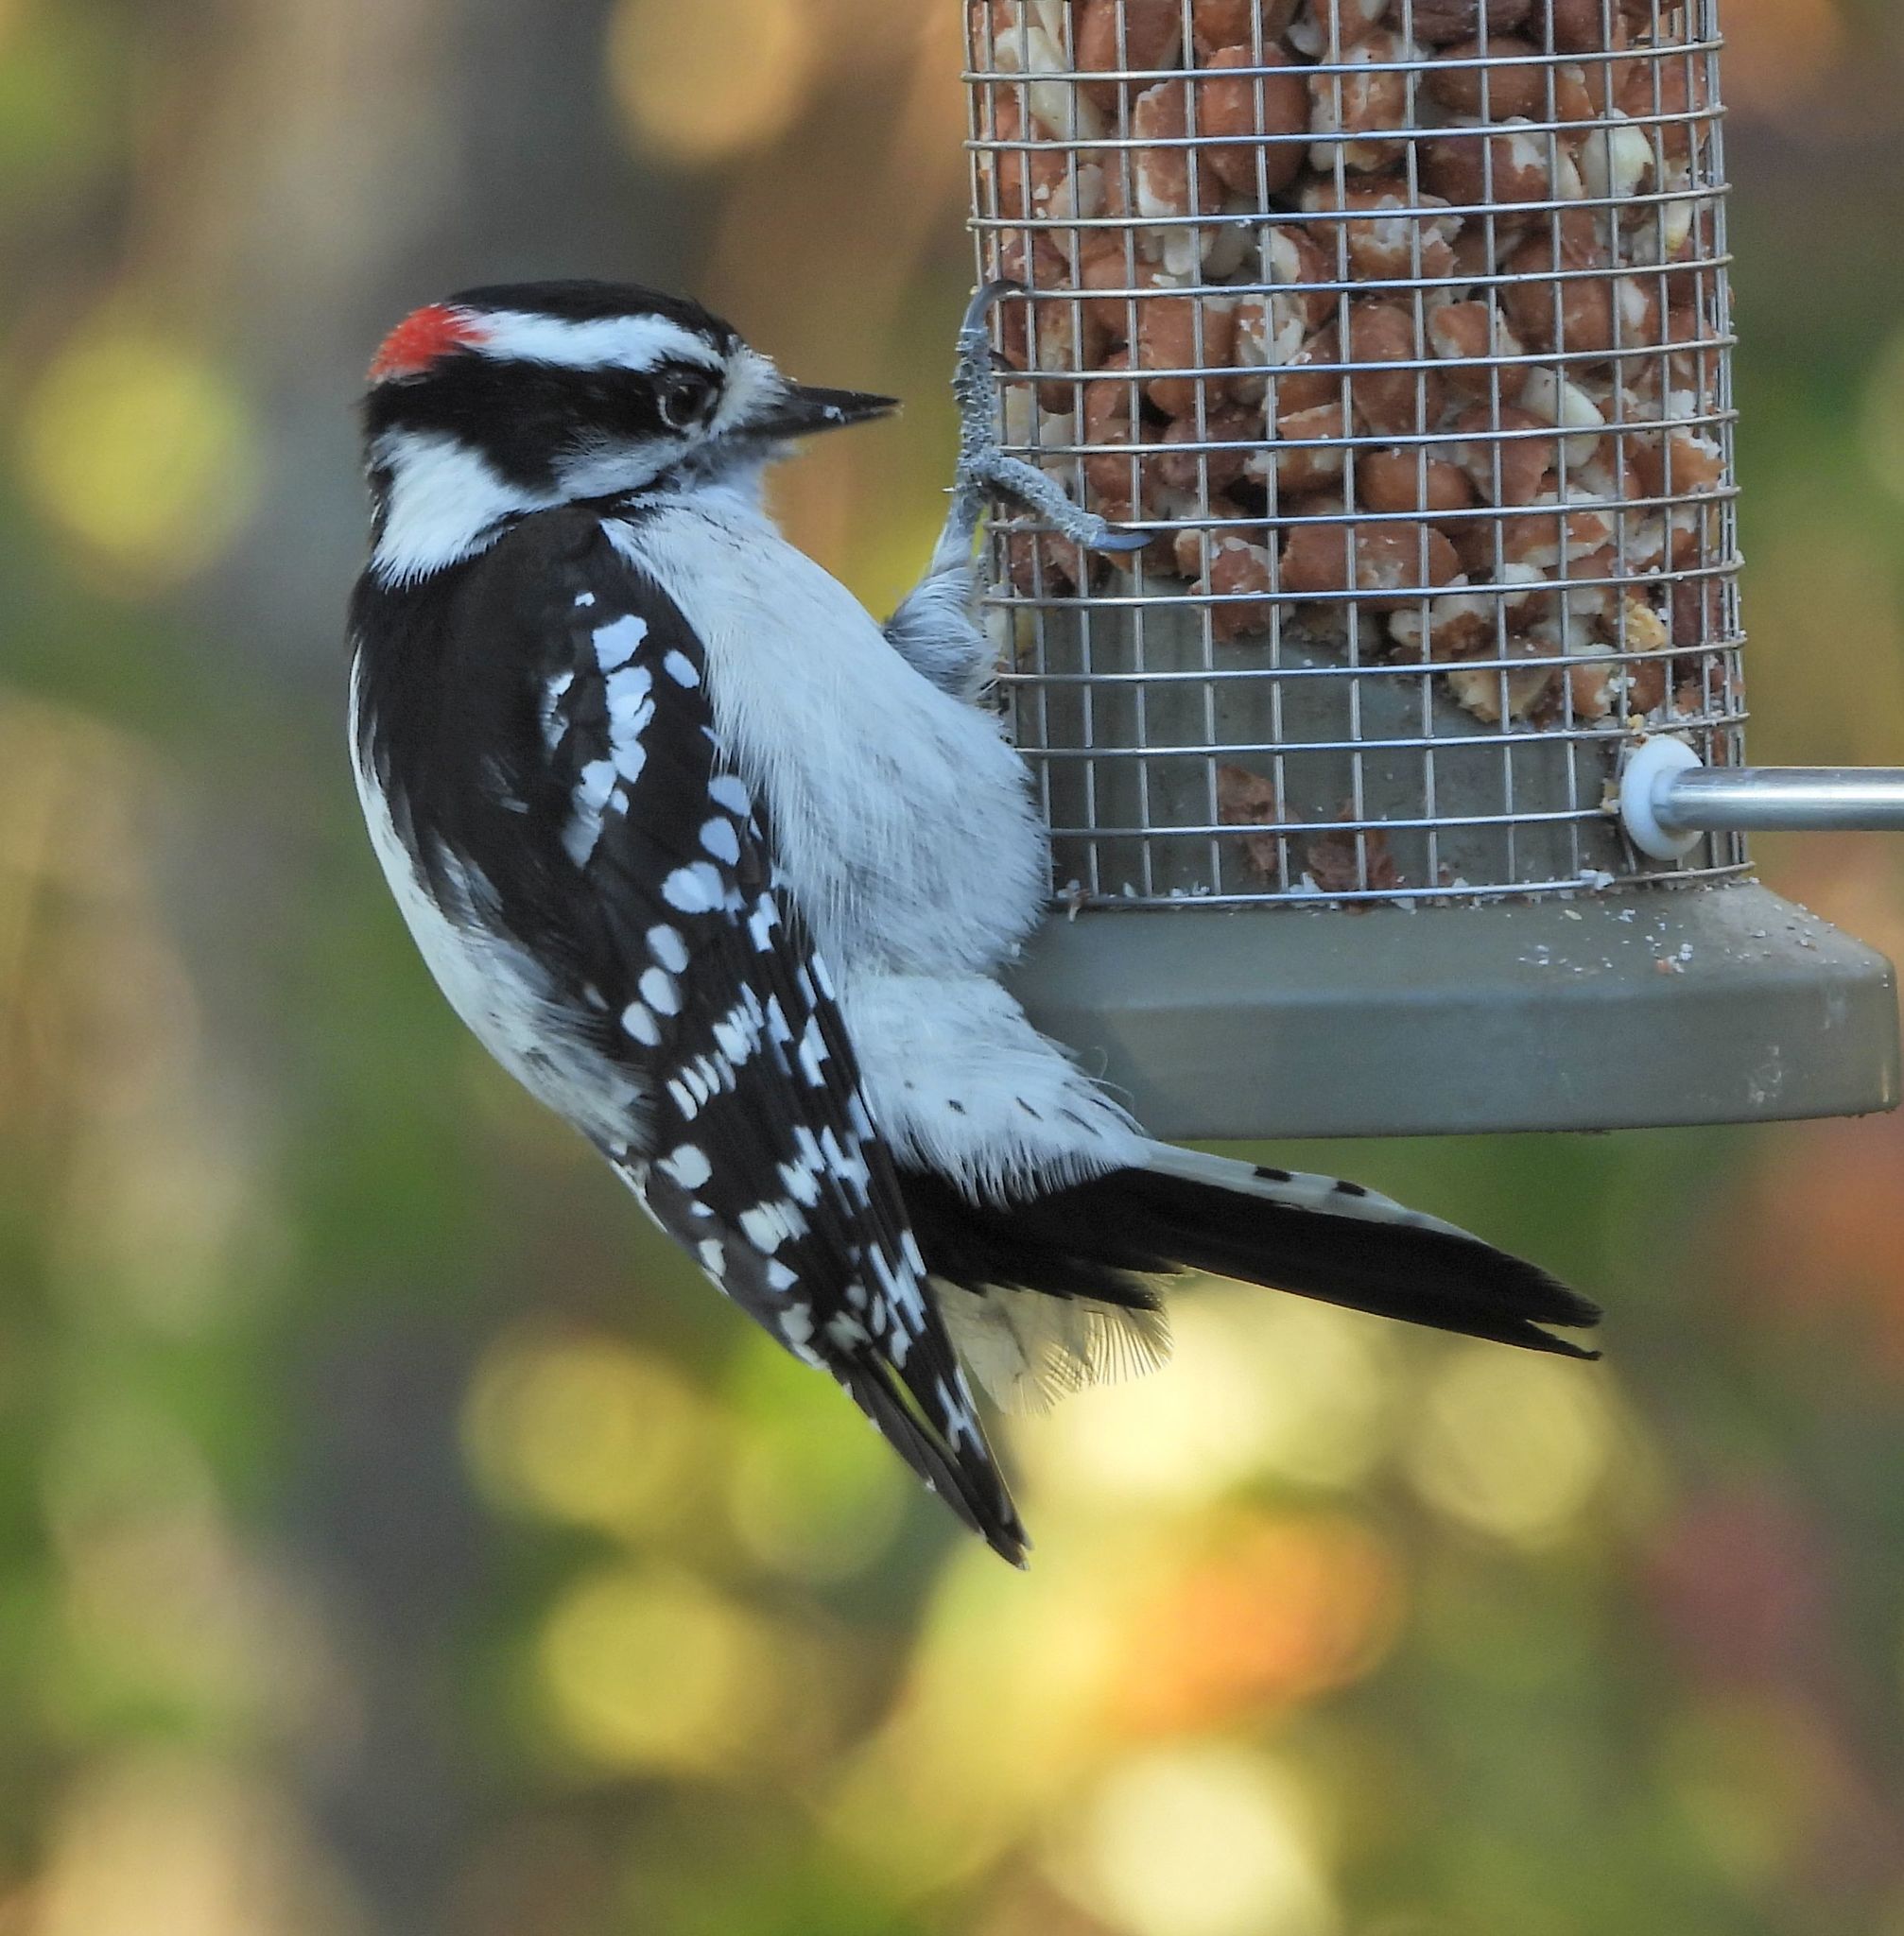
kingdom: Animalia
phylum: Chordata
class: Aves
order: Piciformes
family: Picidae
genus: Dryobates
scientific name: Dryobates pubescens
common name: Downy woodpecker
